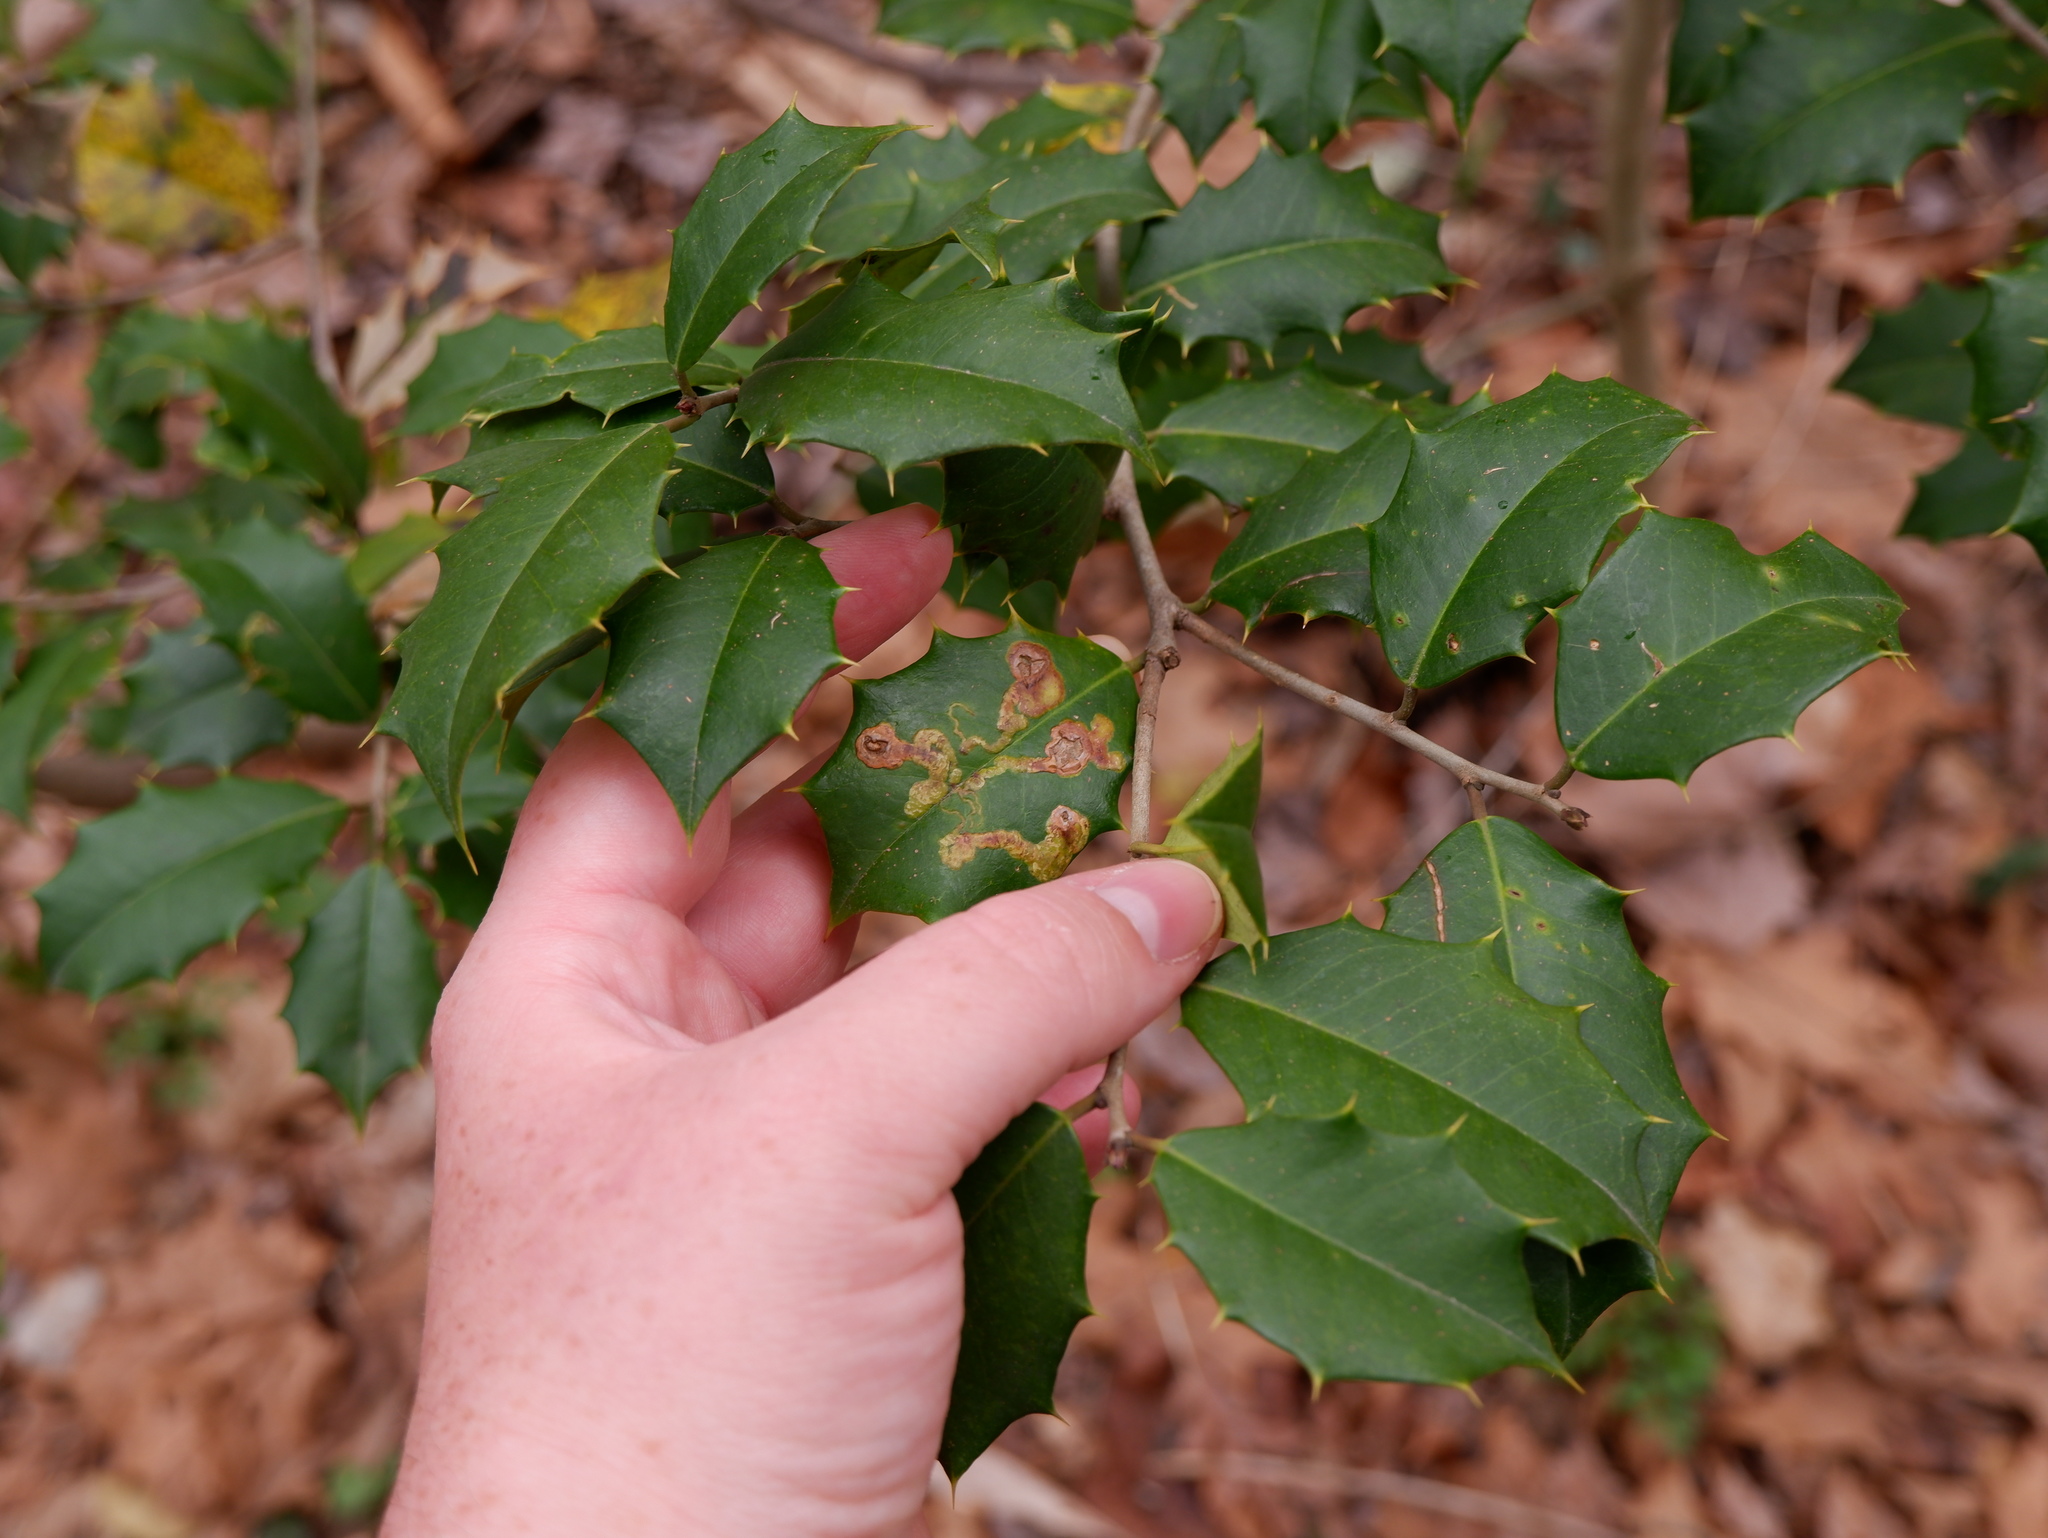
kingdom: Animalia
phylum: Arthropoda
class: Insecta
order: Diptera
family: Agromyzidae
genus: Phytomyza
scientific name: Phytomyza ilicicola
